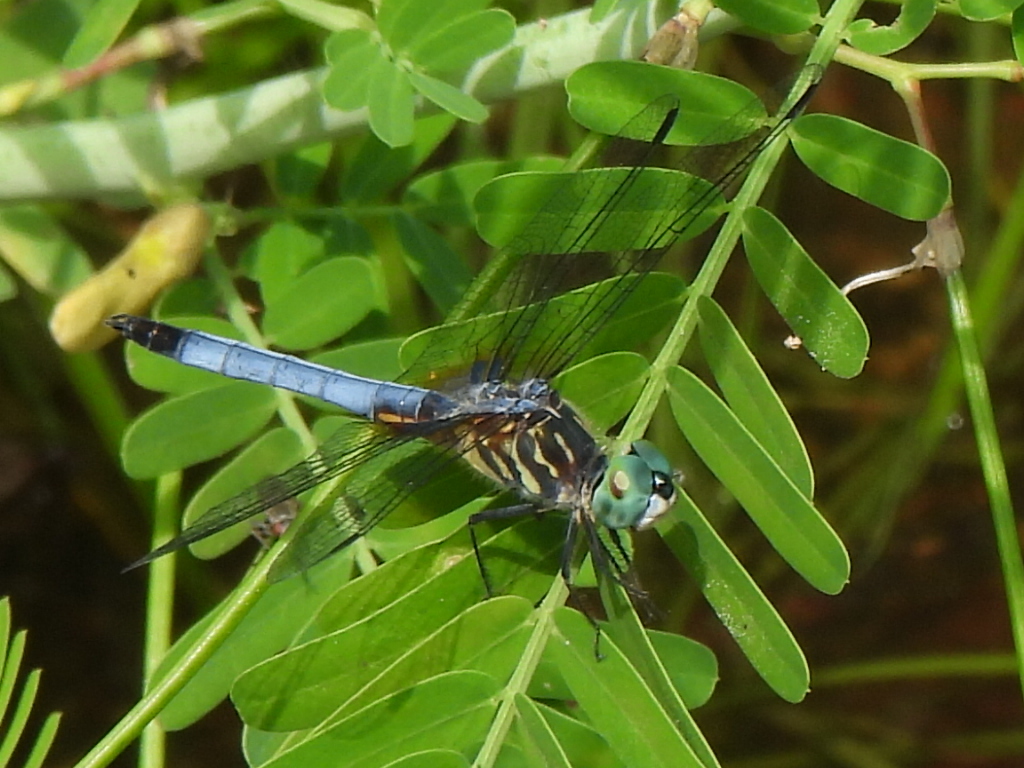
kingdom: Animalia
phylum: Arthropoda
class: Insecta
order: Odonata
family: Libellulidae
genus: Pachydiplax
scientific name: Pachydiplax longipennis
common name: Blue dasher
